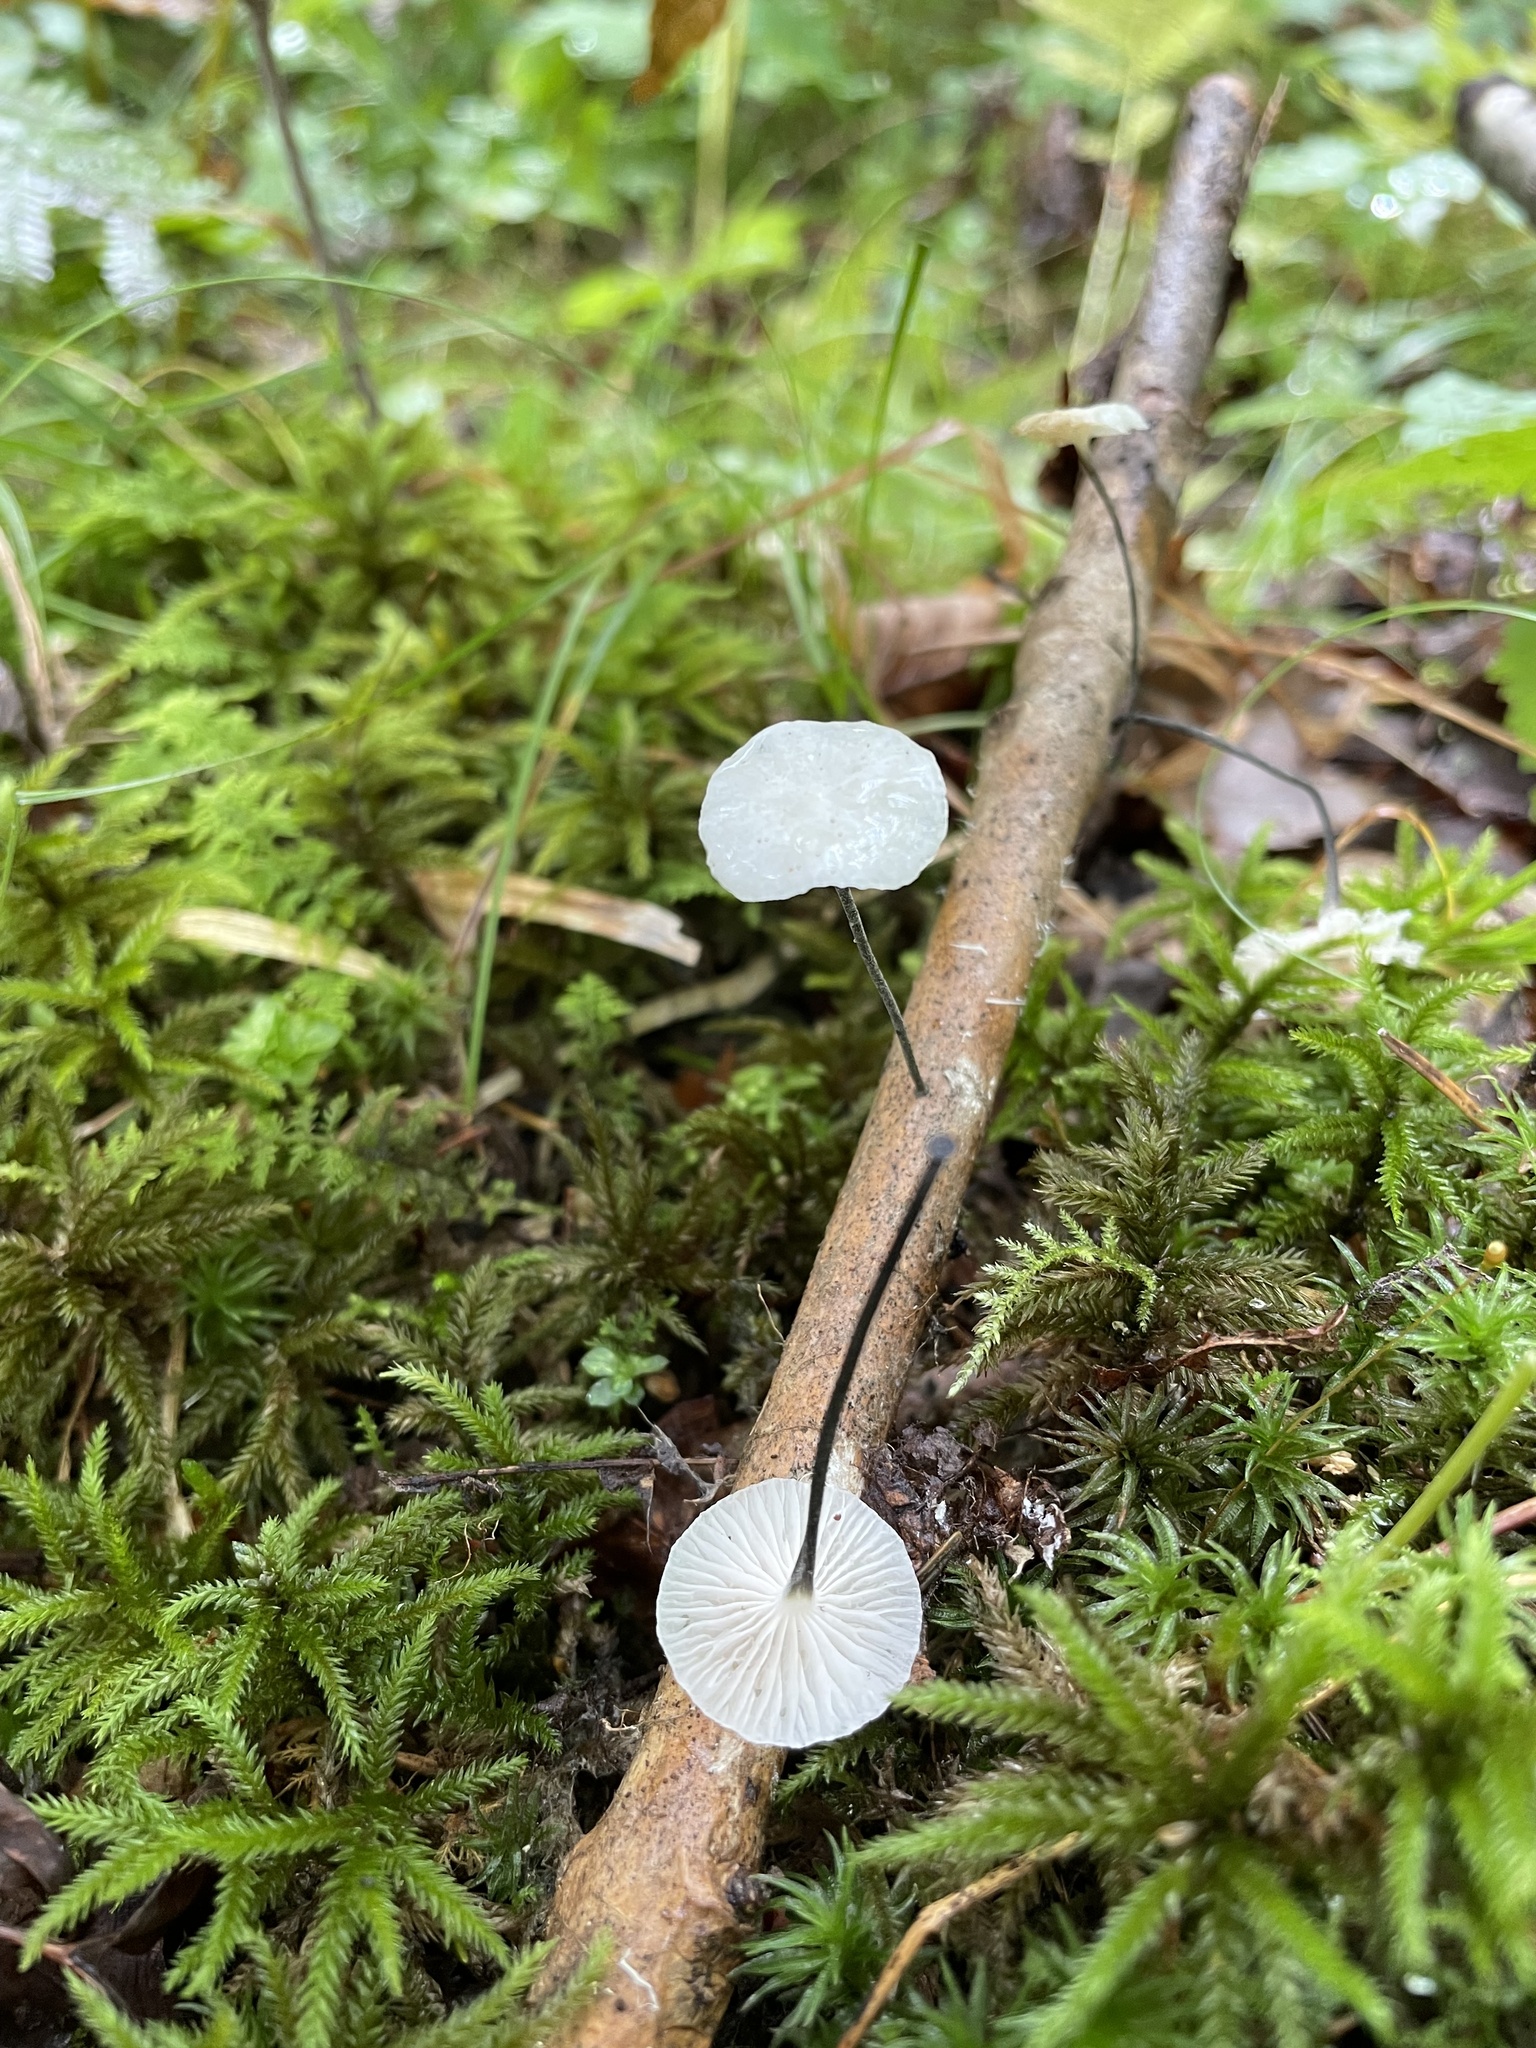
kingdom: Fungi
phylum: Basidiomycota
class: Agaricomycetes
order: Agaricales
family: Marasmiaceae
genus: Tetrapyrgos
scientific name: Tetrapyrgos nigripes
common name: Black-stalked marasmius
